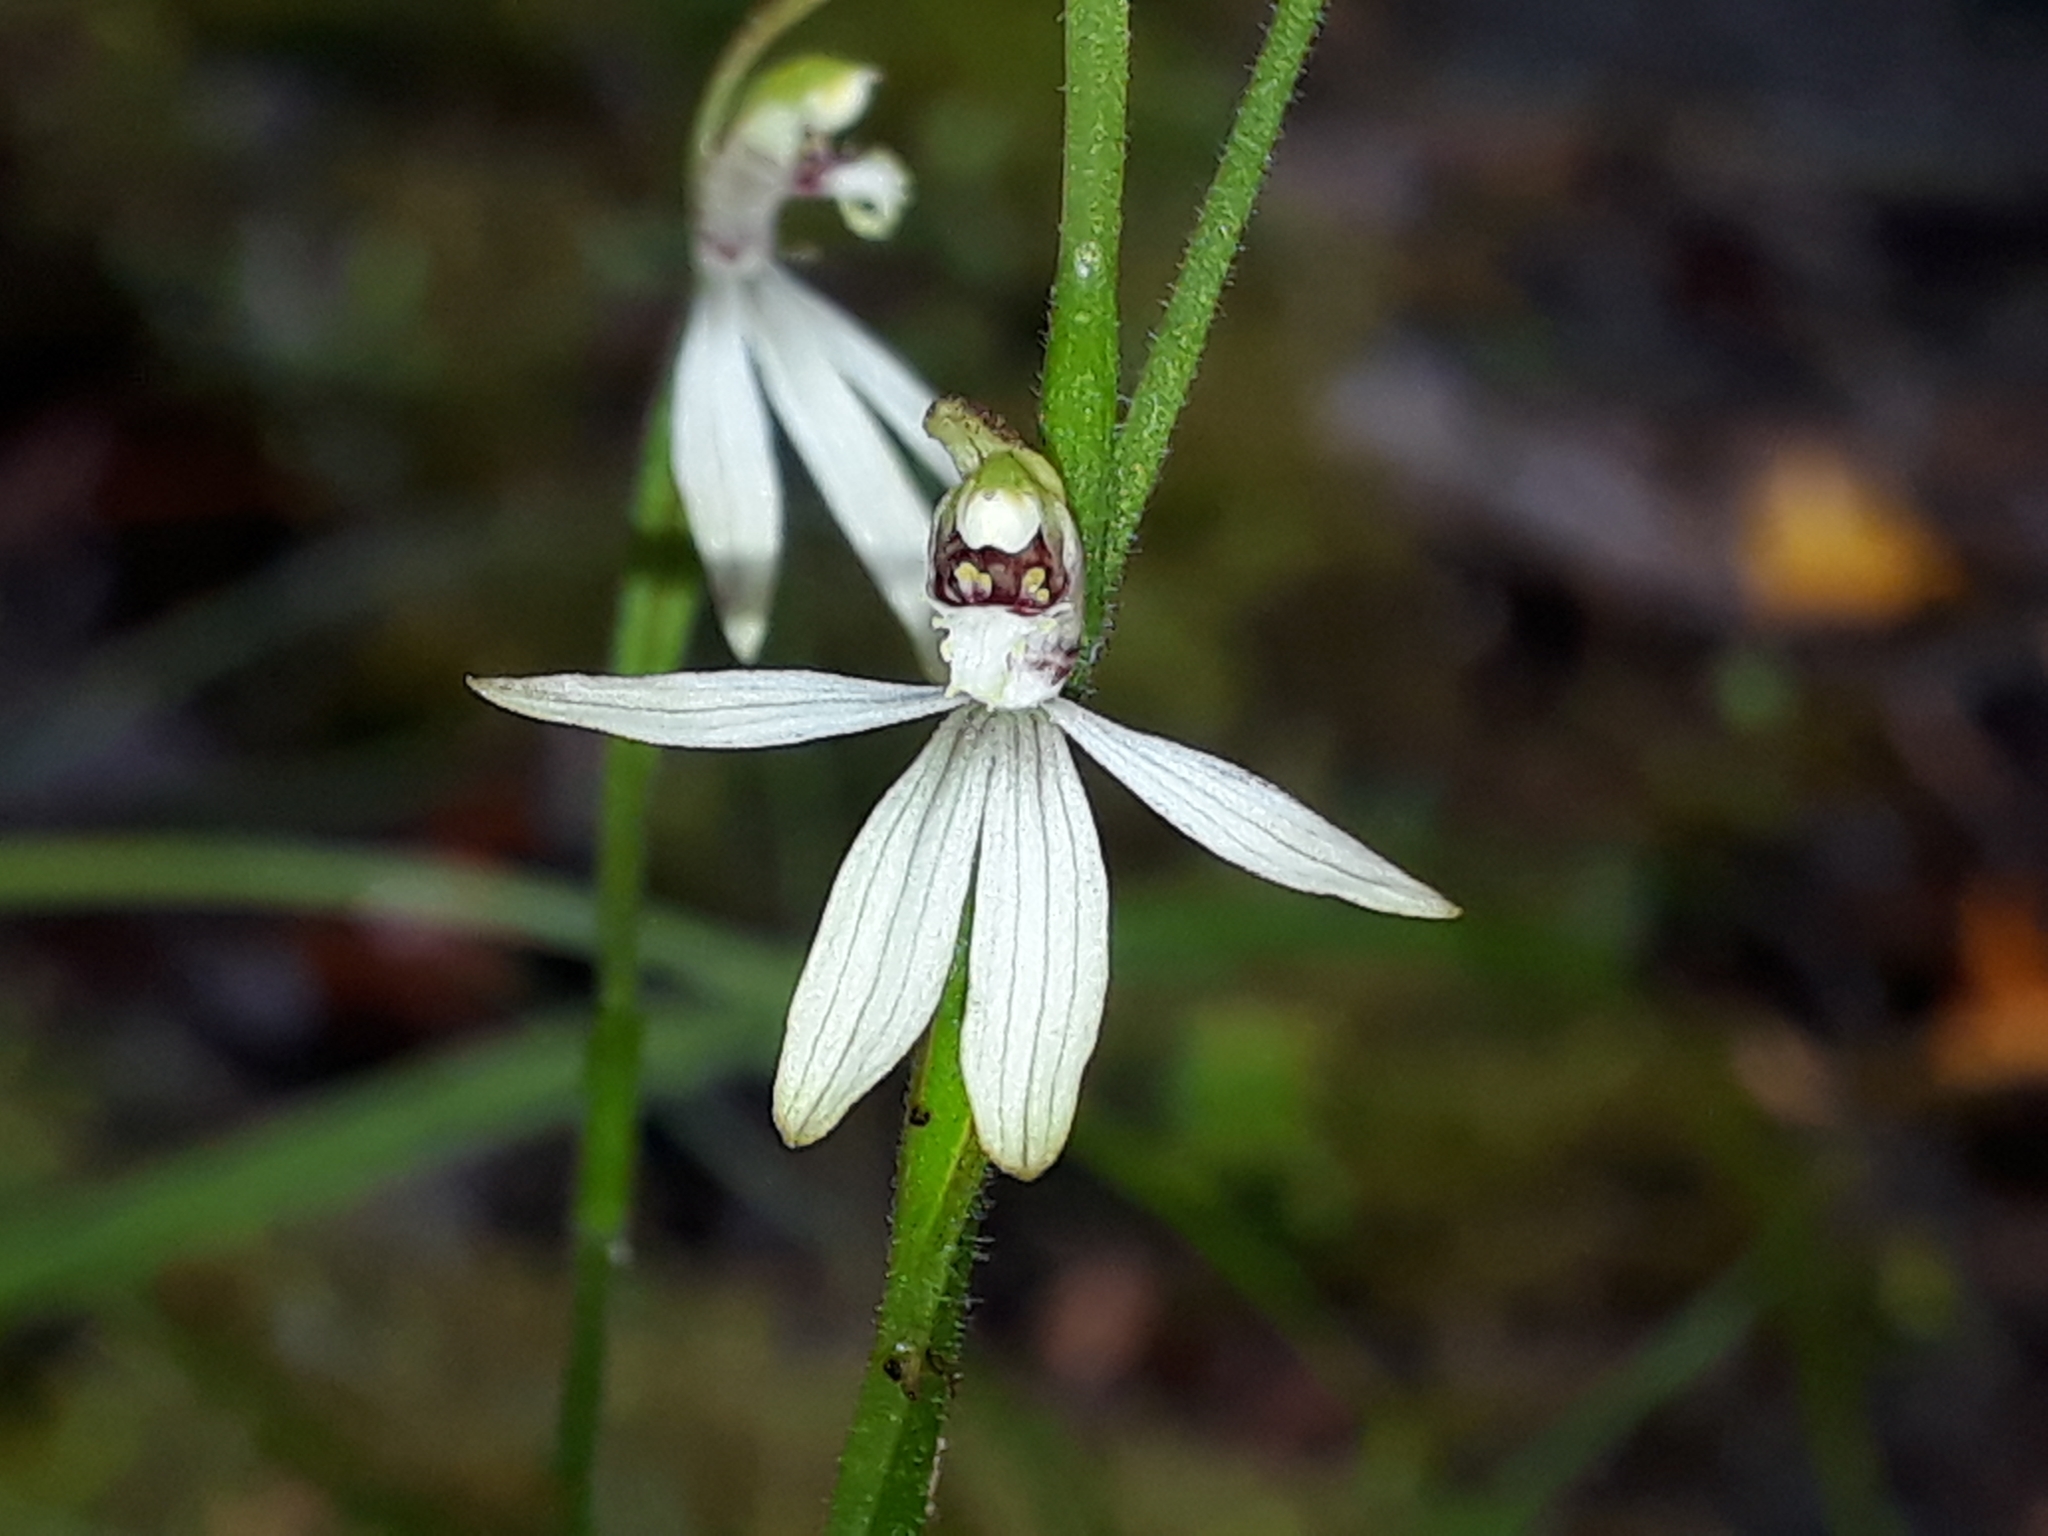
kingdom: Plantae
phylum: Tracheophyta
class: Liliopsida
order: Asparagales
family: Orchidaceae
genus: Caladenia
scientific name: Caladenia chlorostyla
